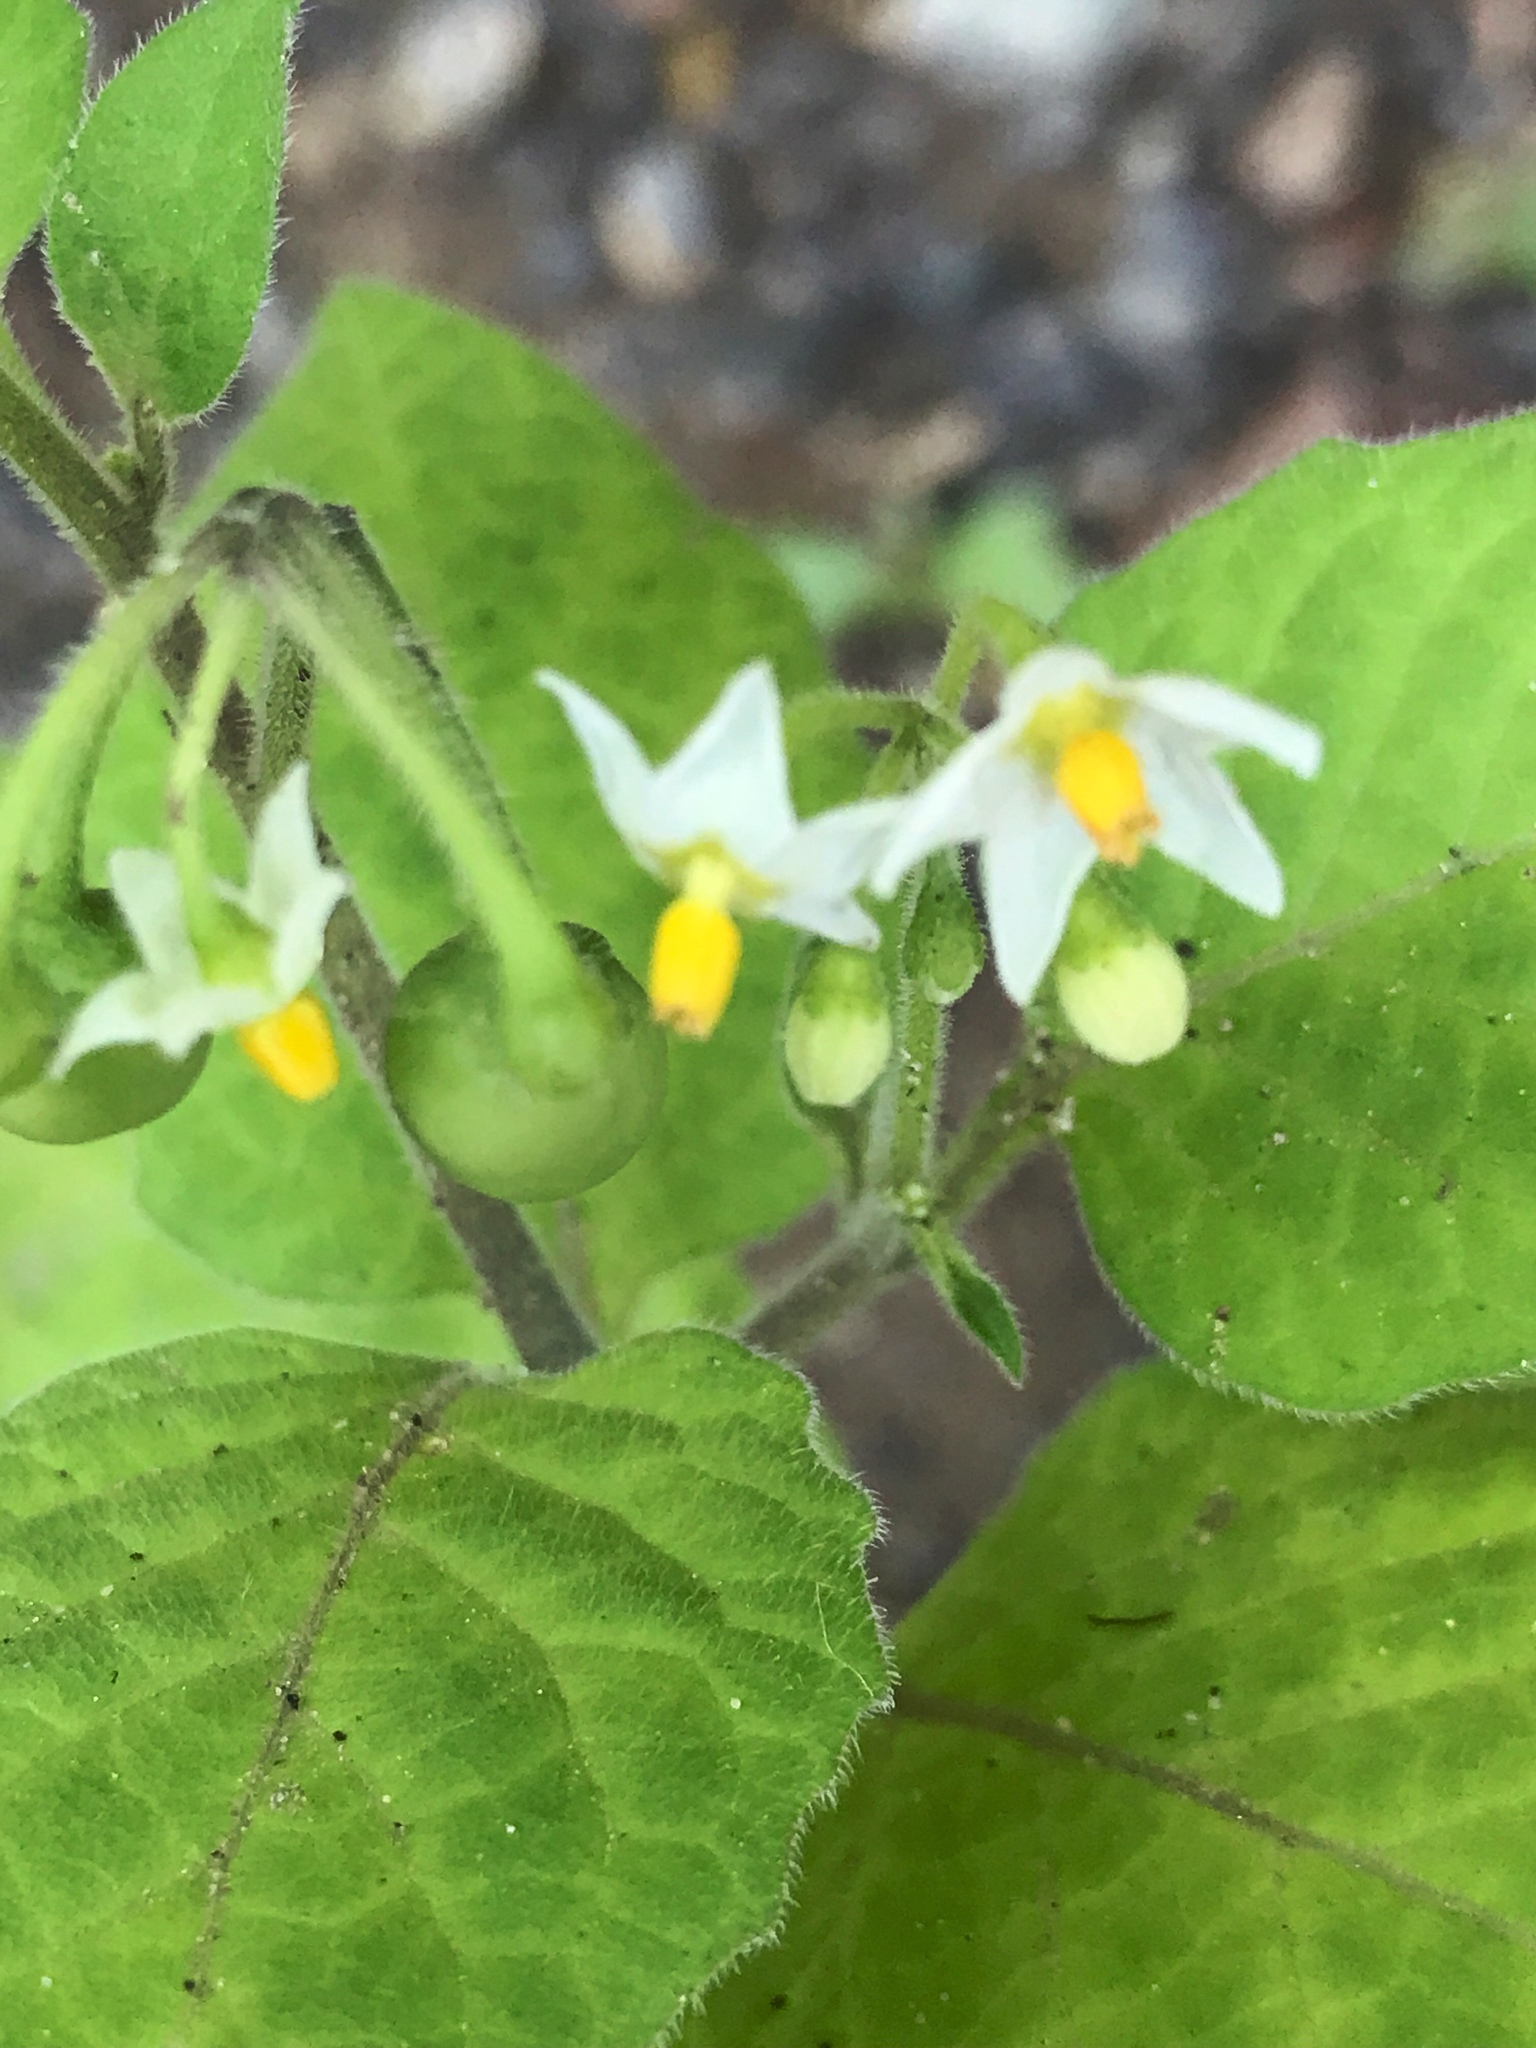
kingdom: Plantae
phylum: Tracheophyta
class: Magnoliopsida
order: Solanales
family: Solanaceae
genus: Solanum
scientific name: Solanum nigrum
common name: Black nightshade
